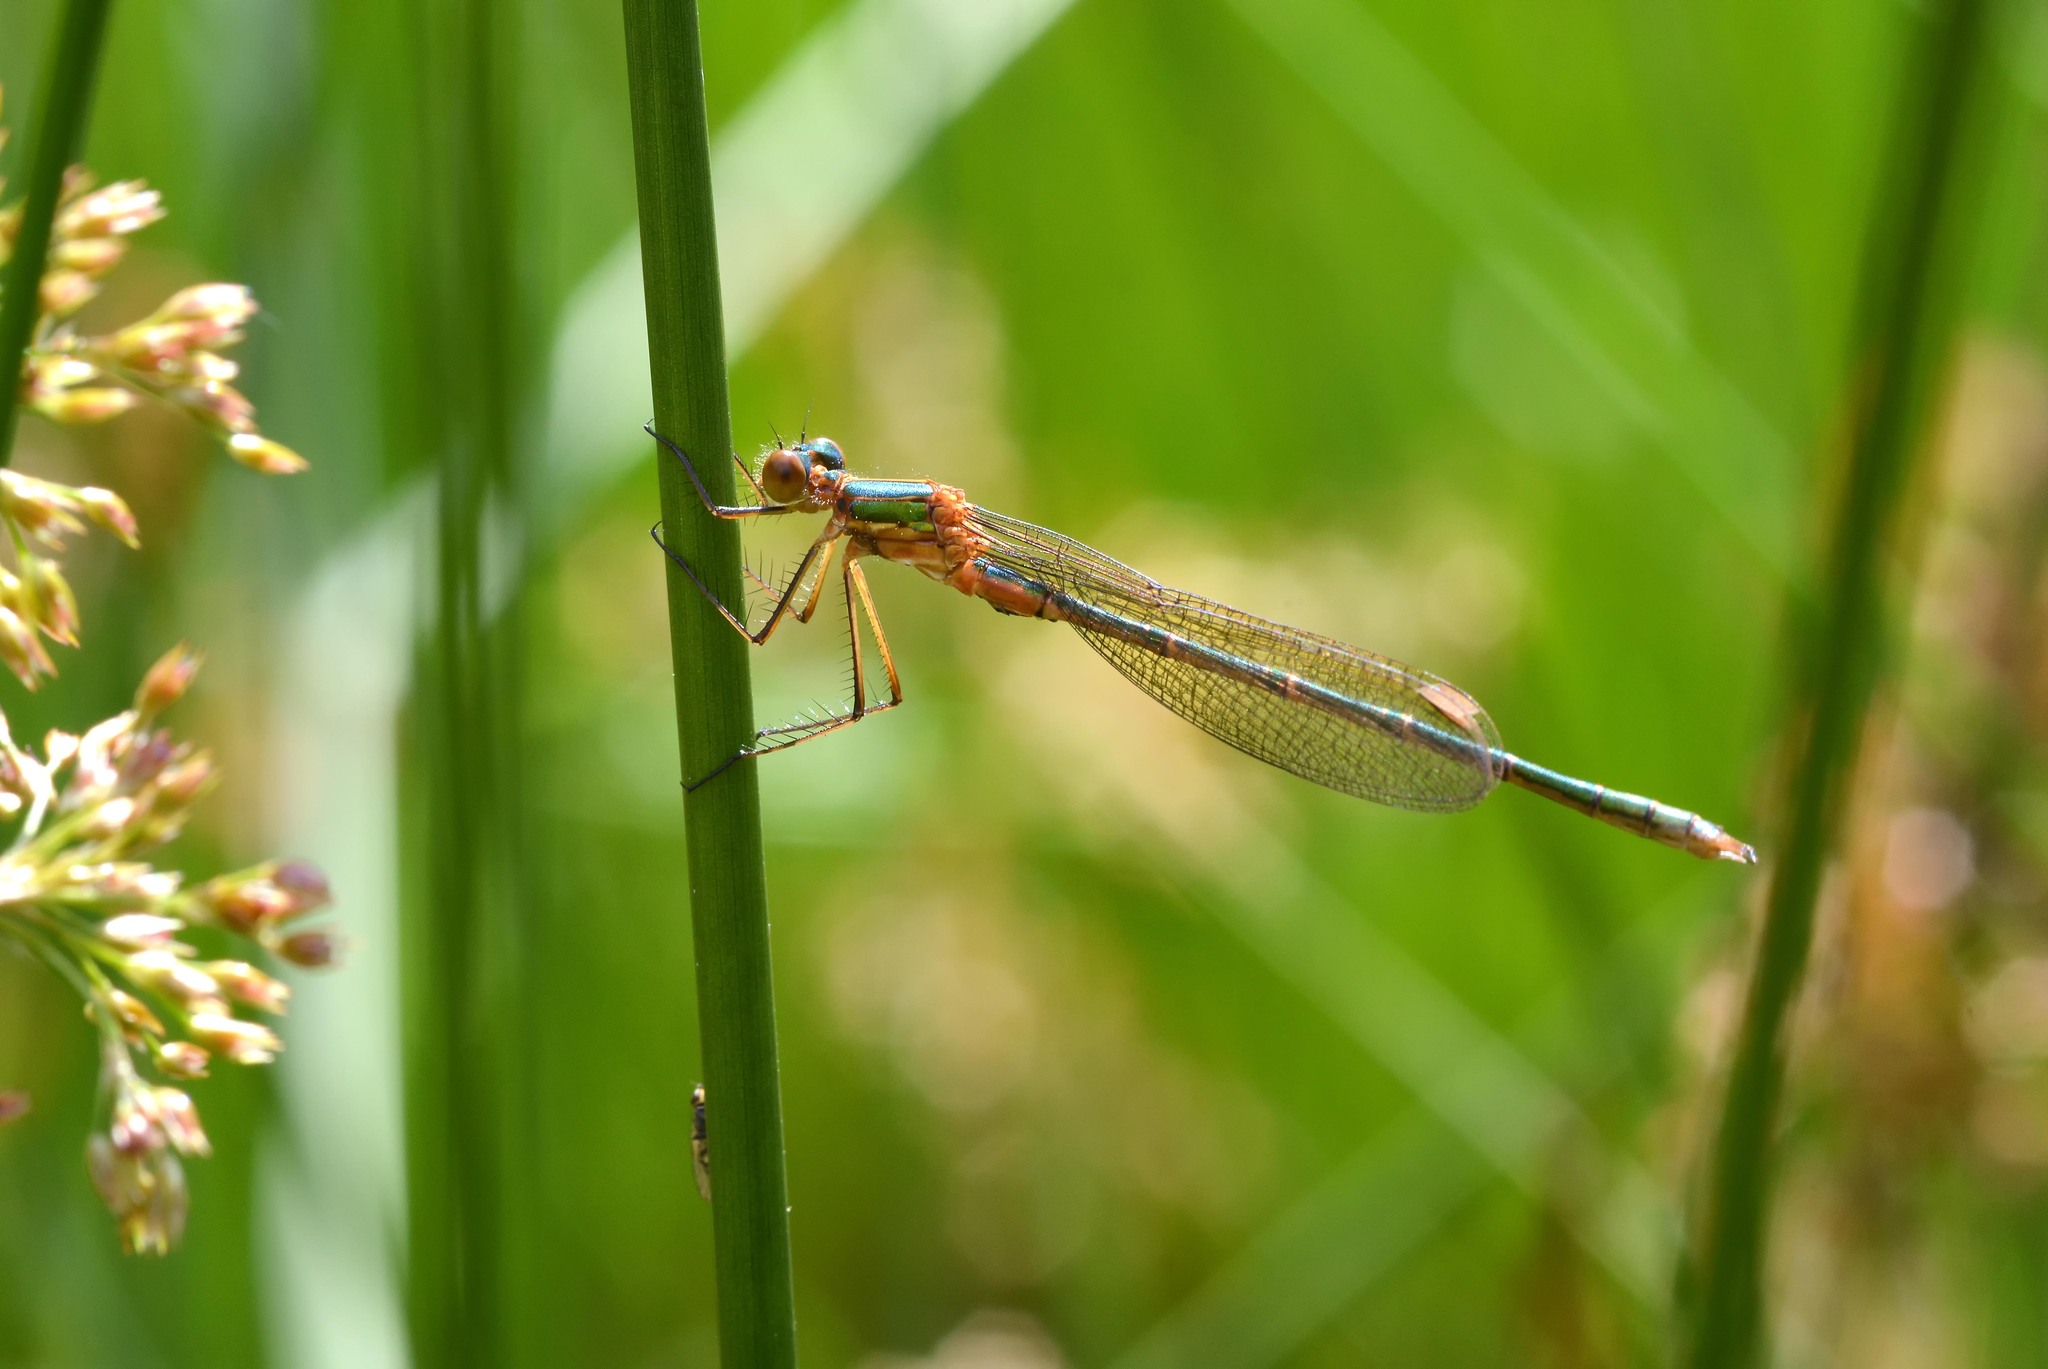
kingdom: Animalia
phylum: Arthropoda
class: Insecta
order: Odonata
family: Lestidae
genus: Lestes
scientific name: Lestes sponsa
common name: Common spreadwing
